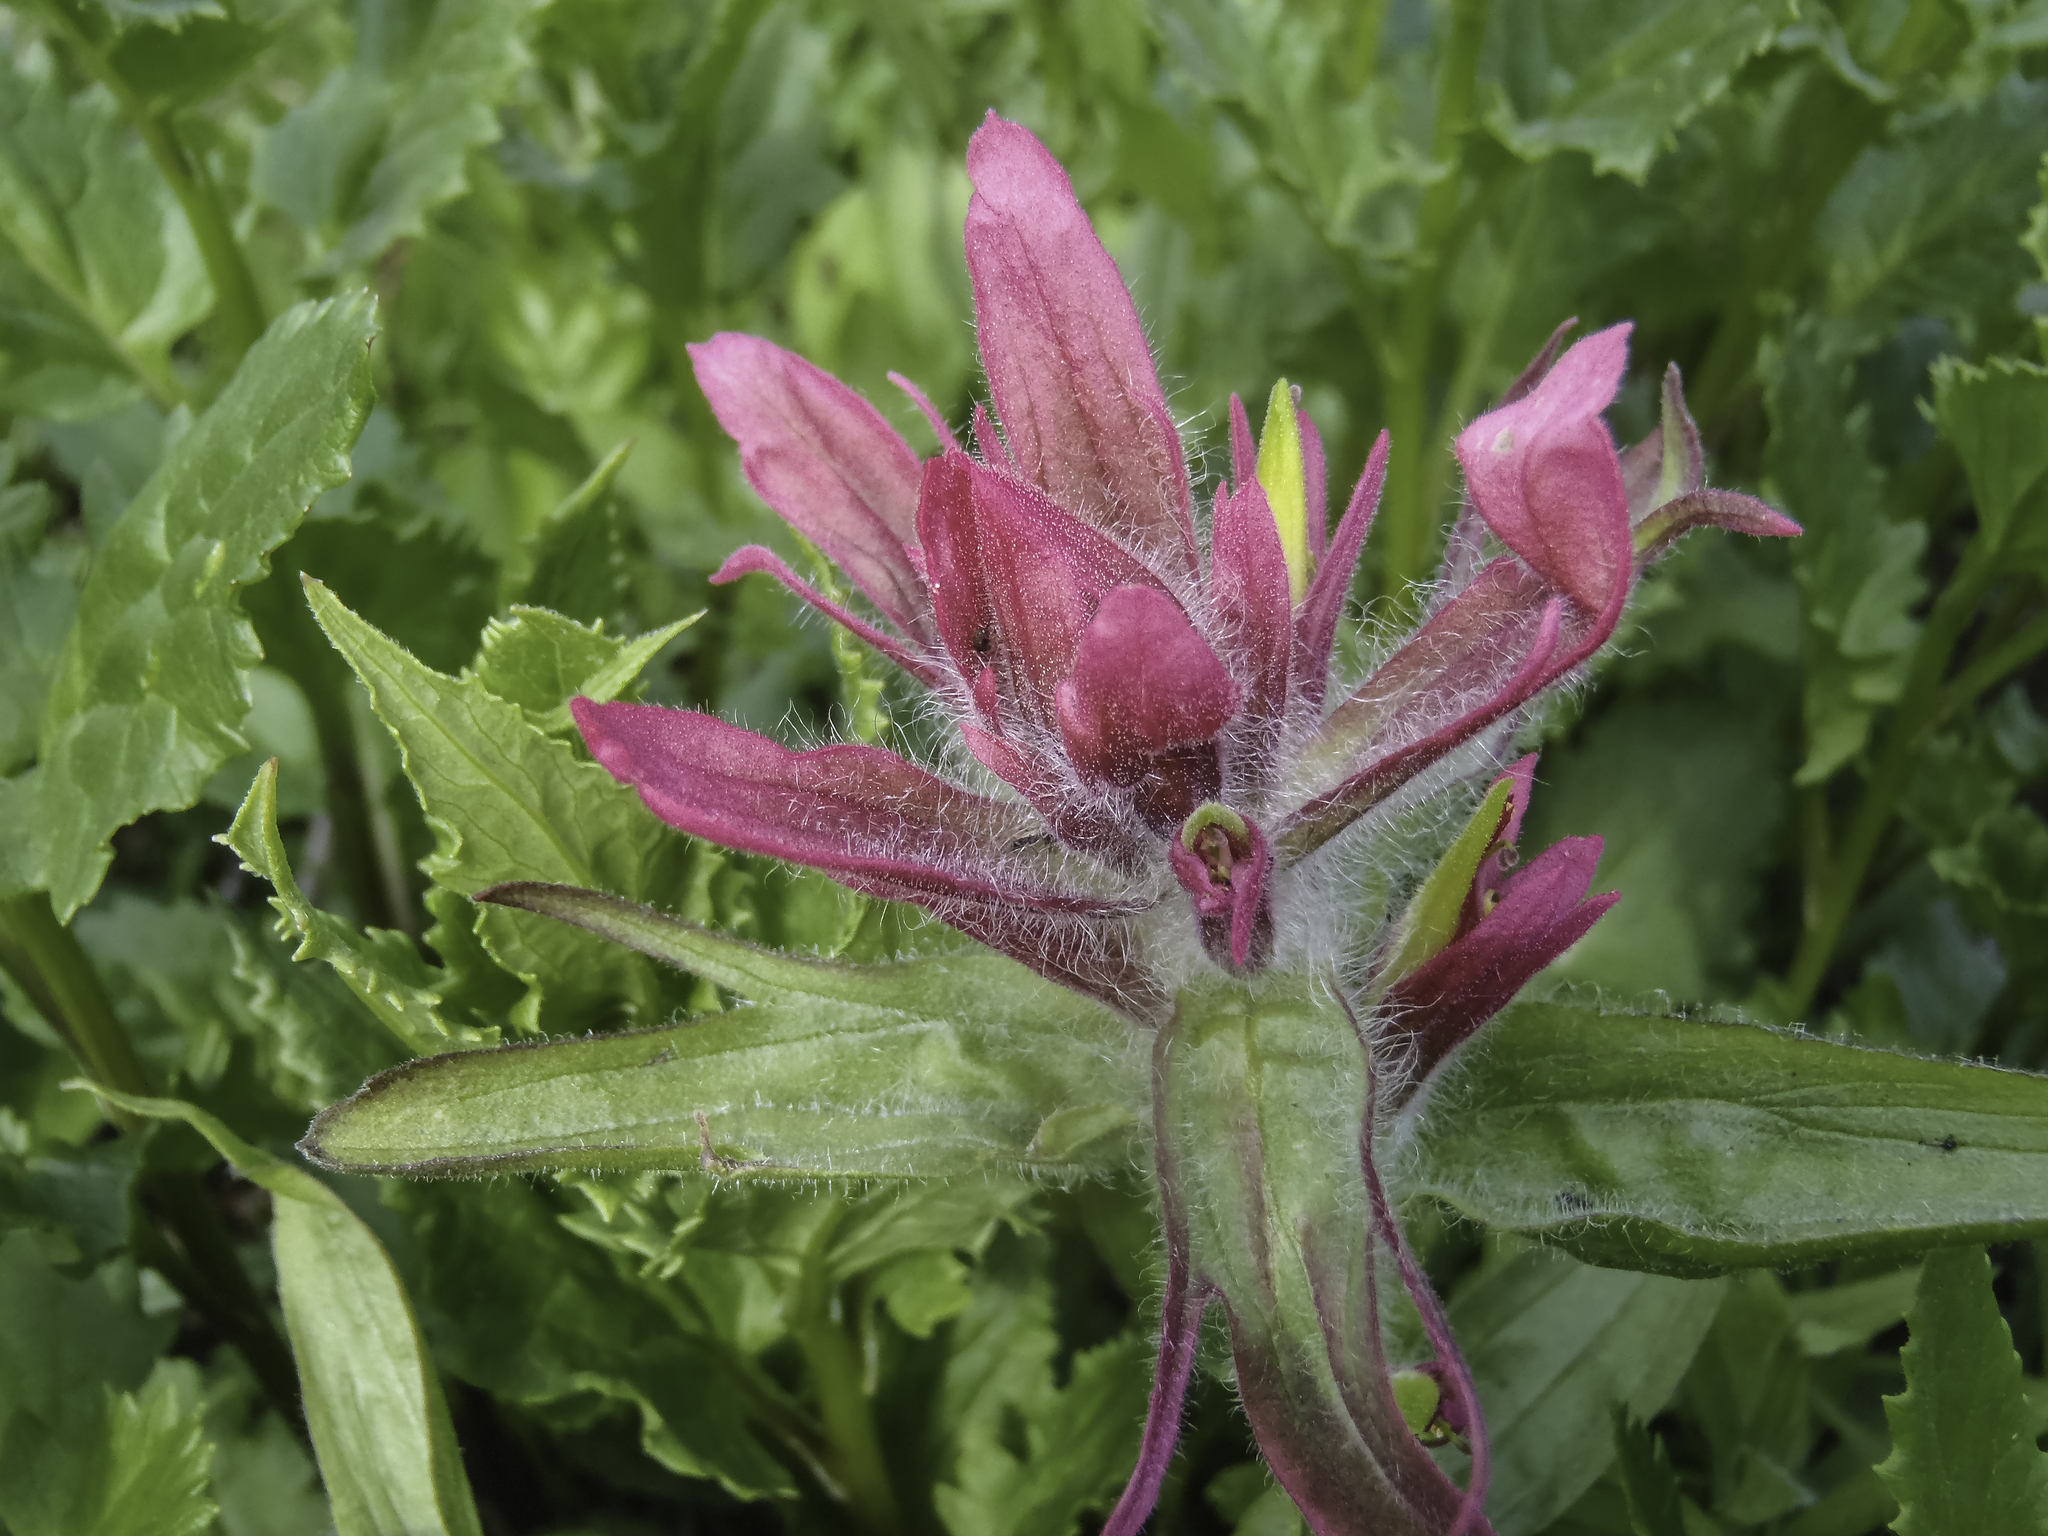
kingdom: Plantae
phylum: Tracheophyta
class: Magnoliopsida
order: Lamiales
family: Orobanchaceae
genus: Castilleja
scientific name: Castilleja rhexifolia
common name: Rocky mountain paintbrush
